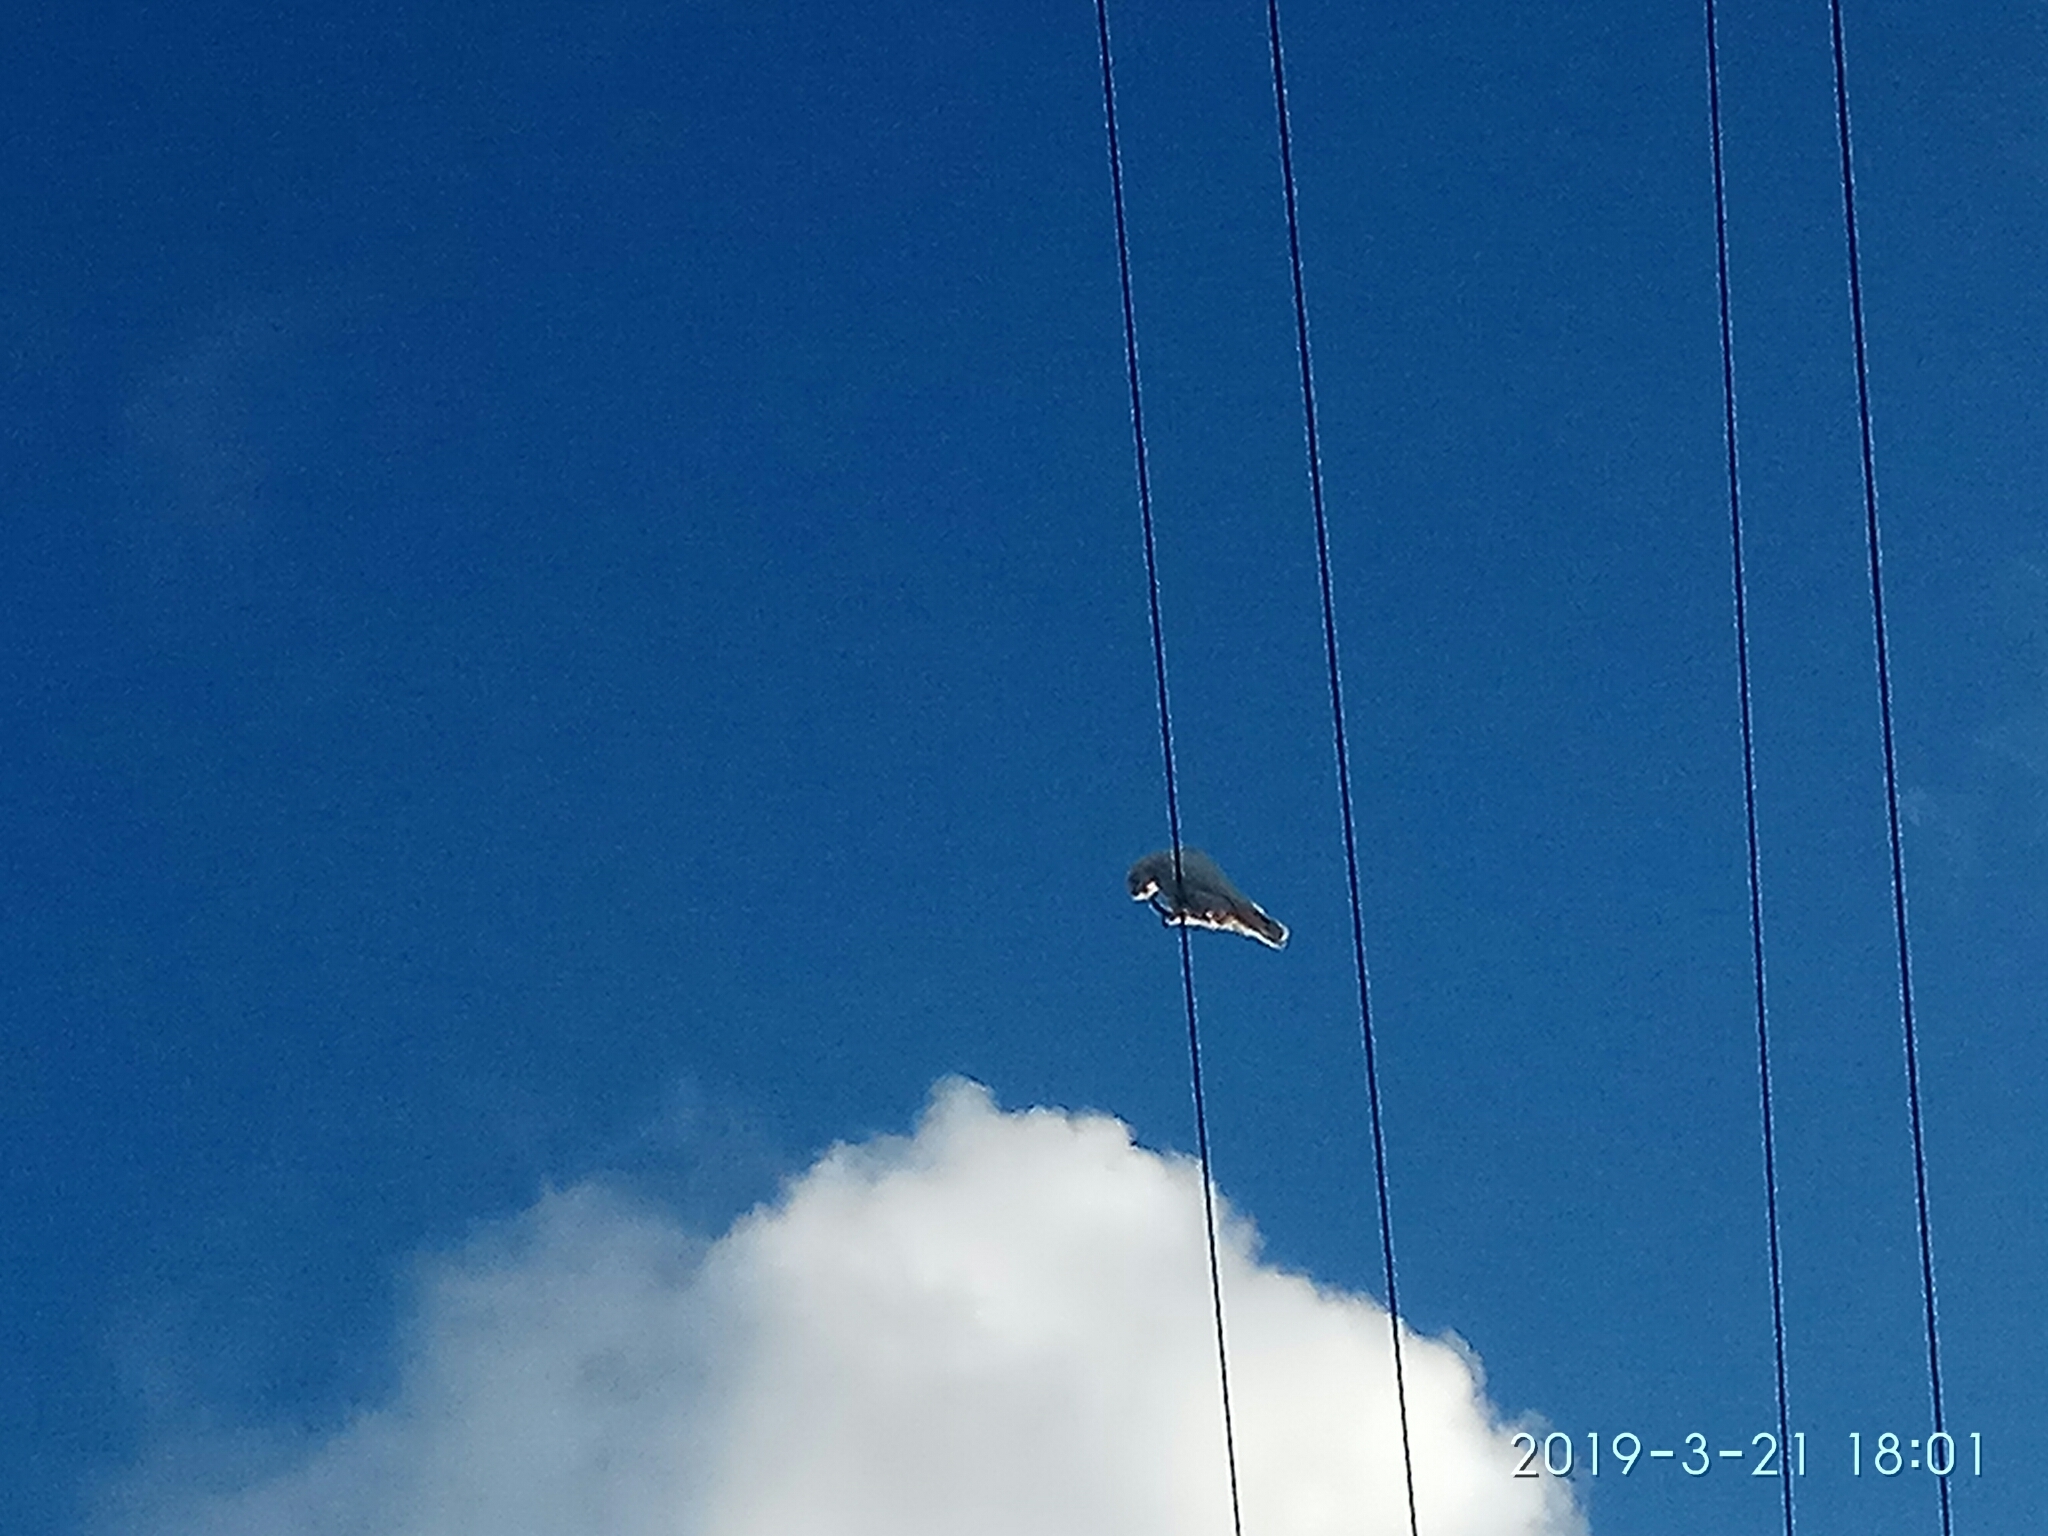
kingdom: Animalia
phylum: Chordata
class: Aves
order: Psittaciformes
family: Psittacidae
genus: Cacatua
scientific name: Cacatua sanguinea
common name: Little corella
